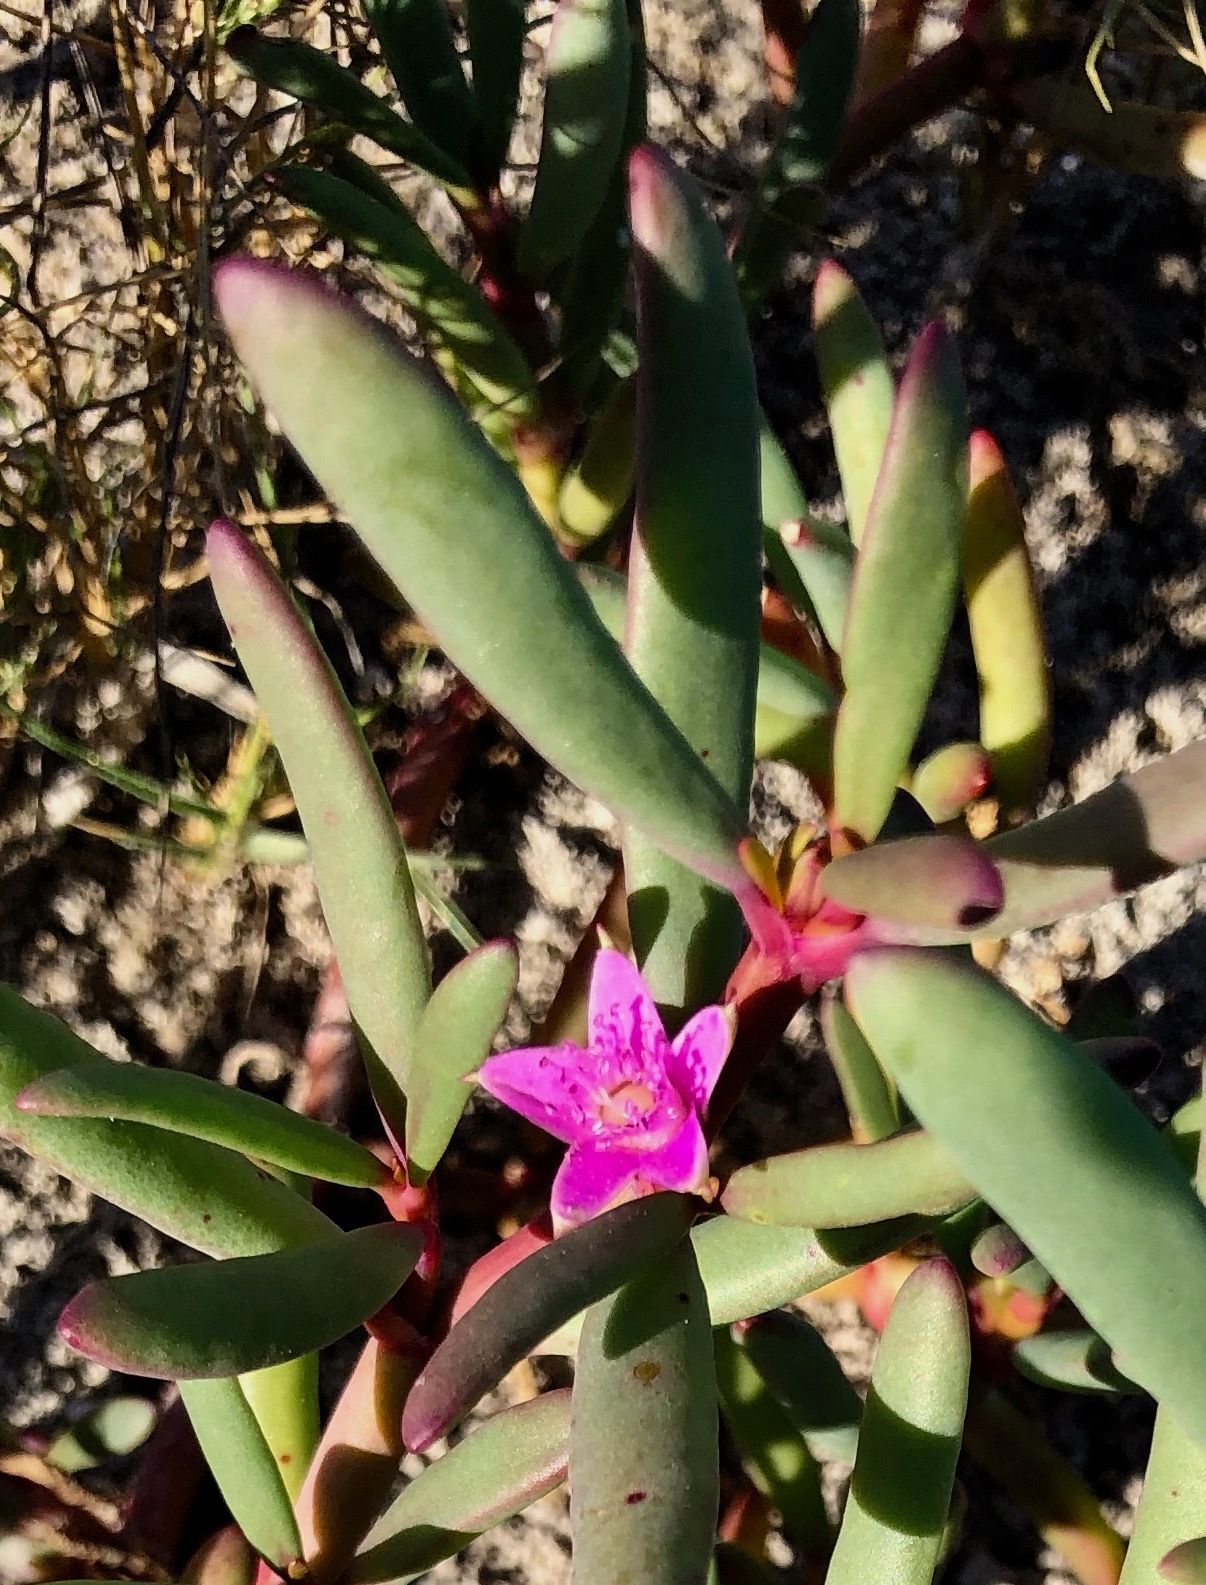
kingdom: Plantae
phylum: Tracheophyta
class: Magnoliopsida
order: Caryophyllales
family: Aizoaceae
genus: Sesuvium
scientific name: Sesuvium portulacastrum
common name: Sea-purslane
